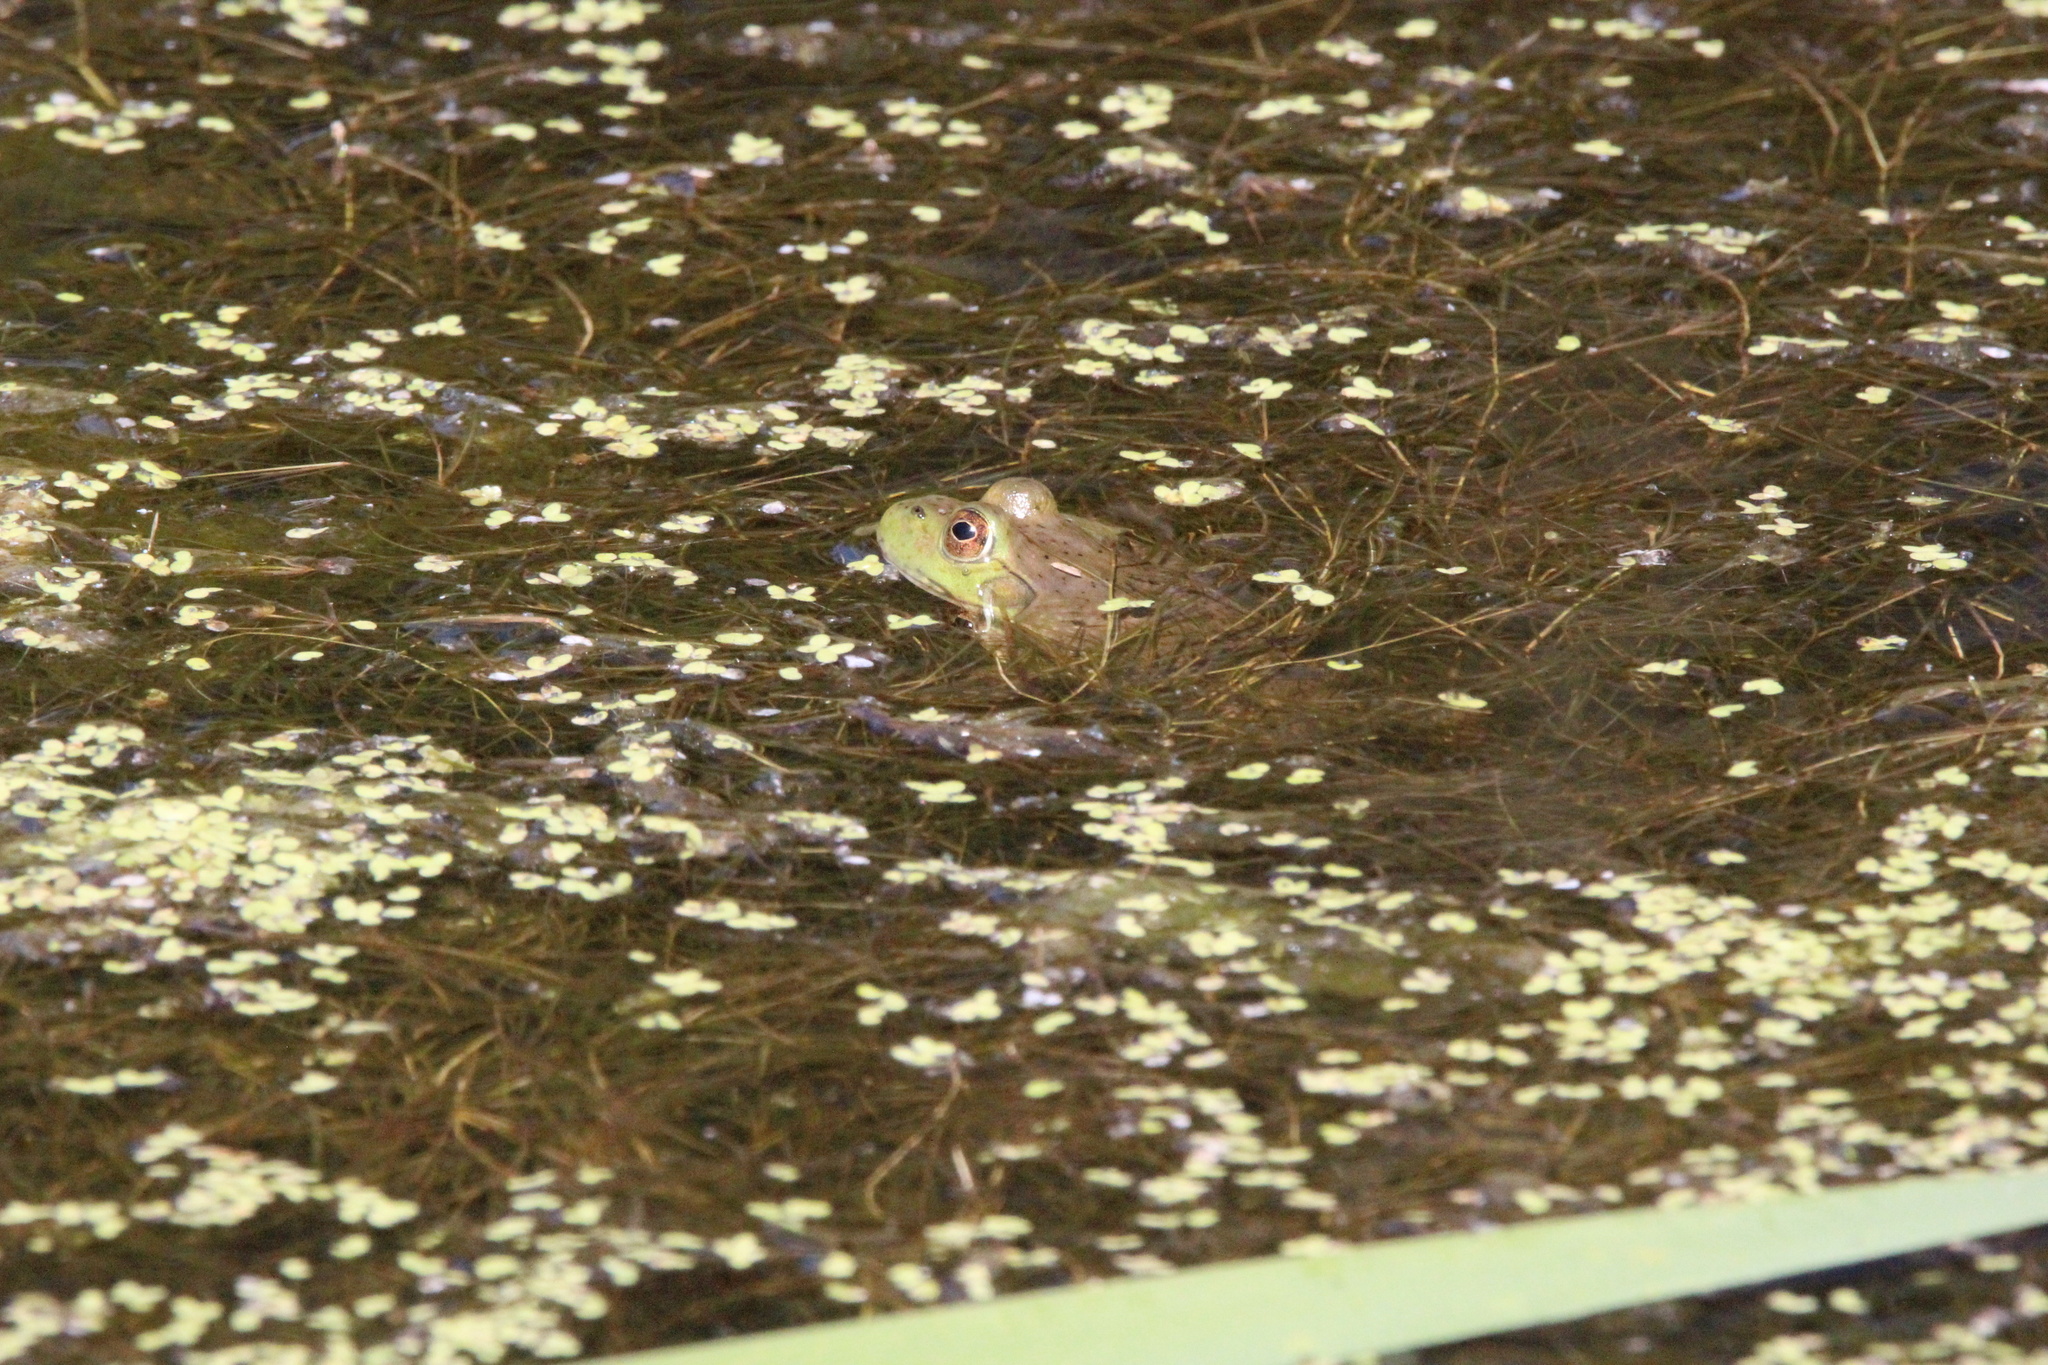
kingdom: Animalia
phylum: Chordata
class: Amphibia
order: Anura
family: Ranidae
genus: Lithobates
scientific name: Lithobates catesbeianus
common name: American bullfrog
